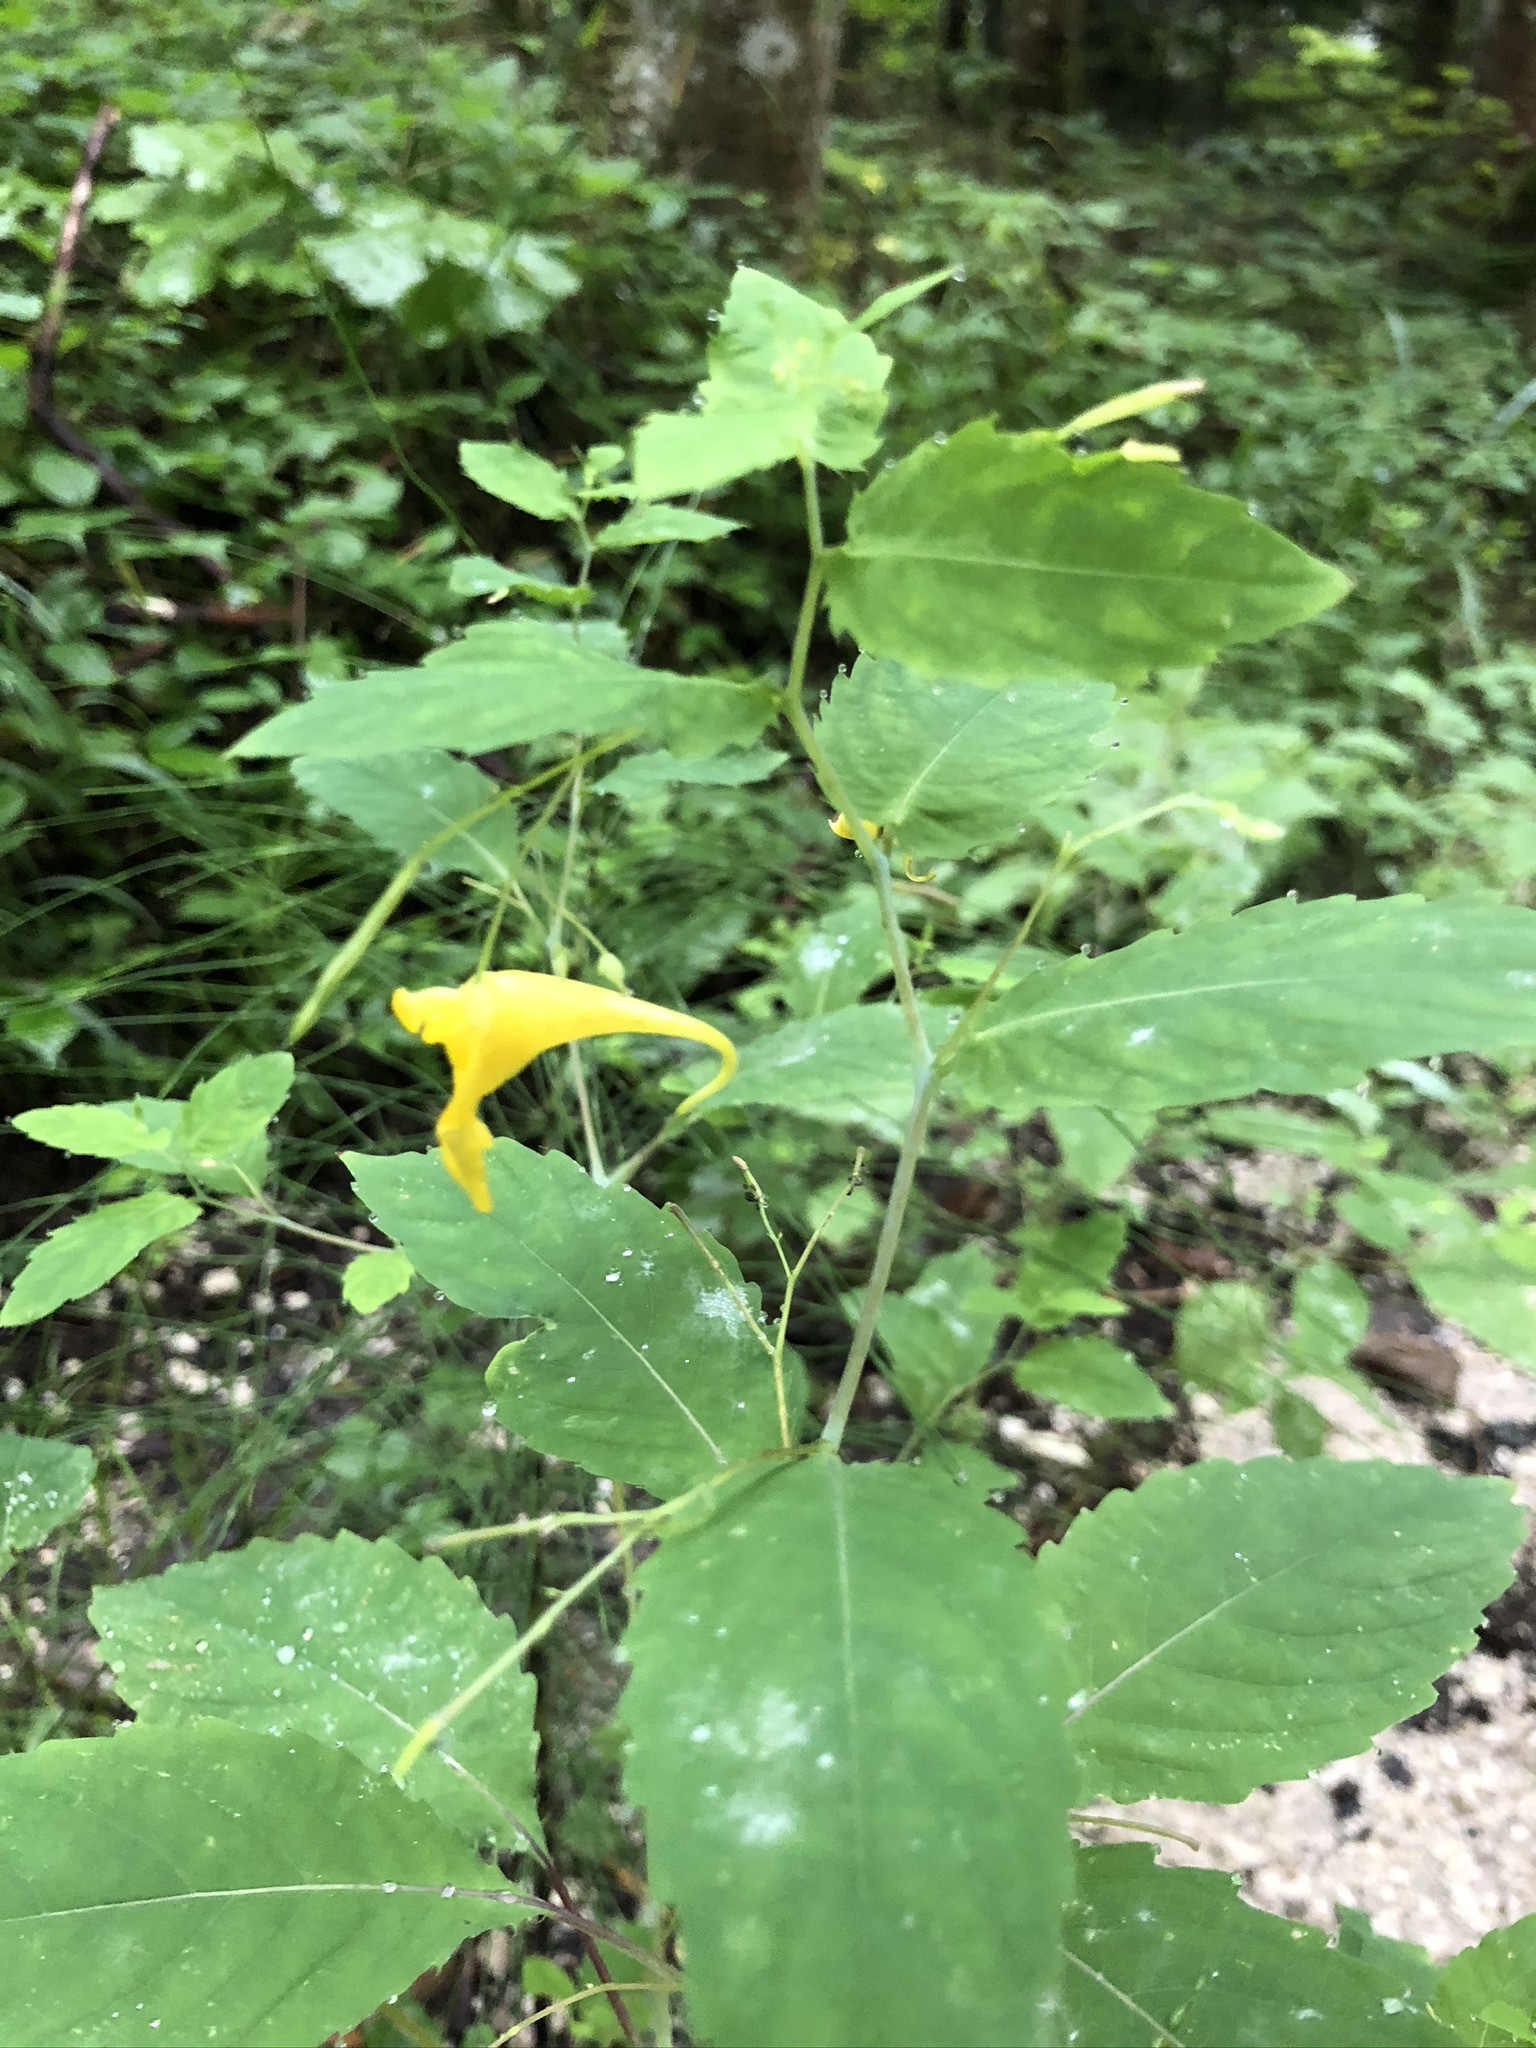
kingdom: Plantae
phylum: Tracheophyta
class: Magnoliopsida
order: Ericales
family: Balsaminaceae
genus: Impatiens
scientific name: Impatiens noli-tangere
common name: Touch-me-not balsam
